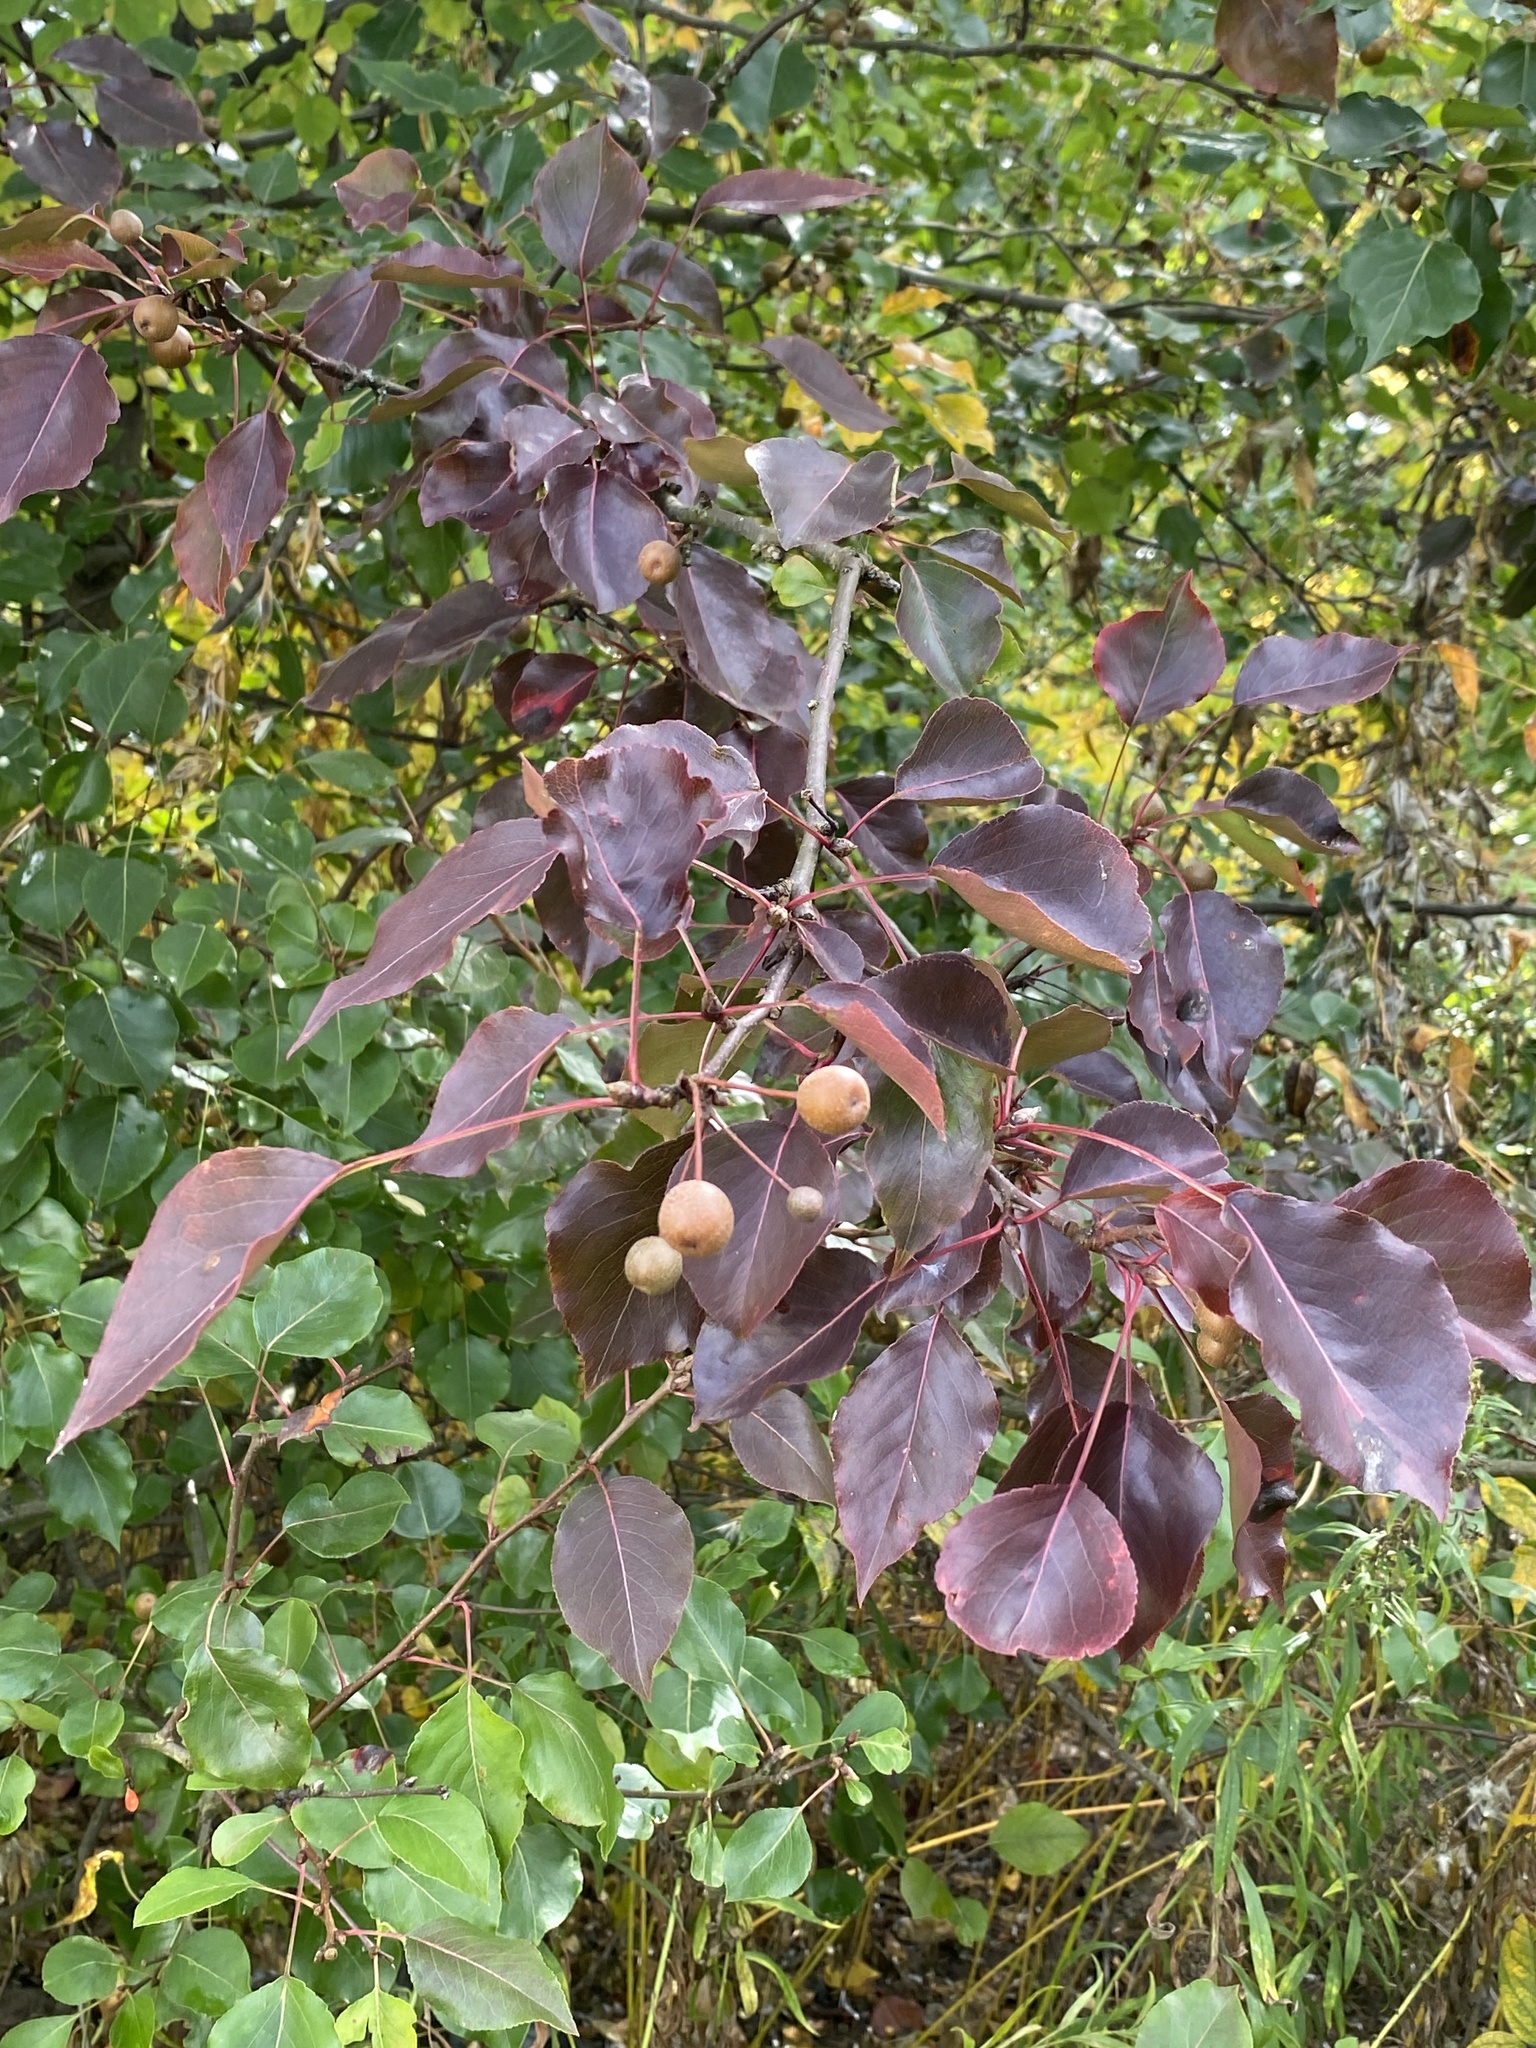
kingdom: Plantae
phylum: Tracheophyta
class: Magnoliopsida
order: Rosales
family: Rosaceae
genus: Pyrus
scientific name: Pyrus calleryana
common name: Callery pear
